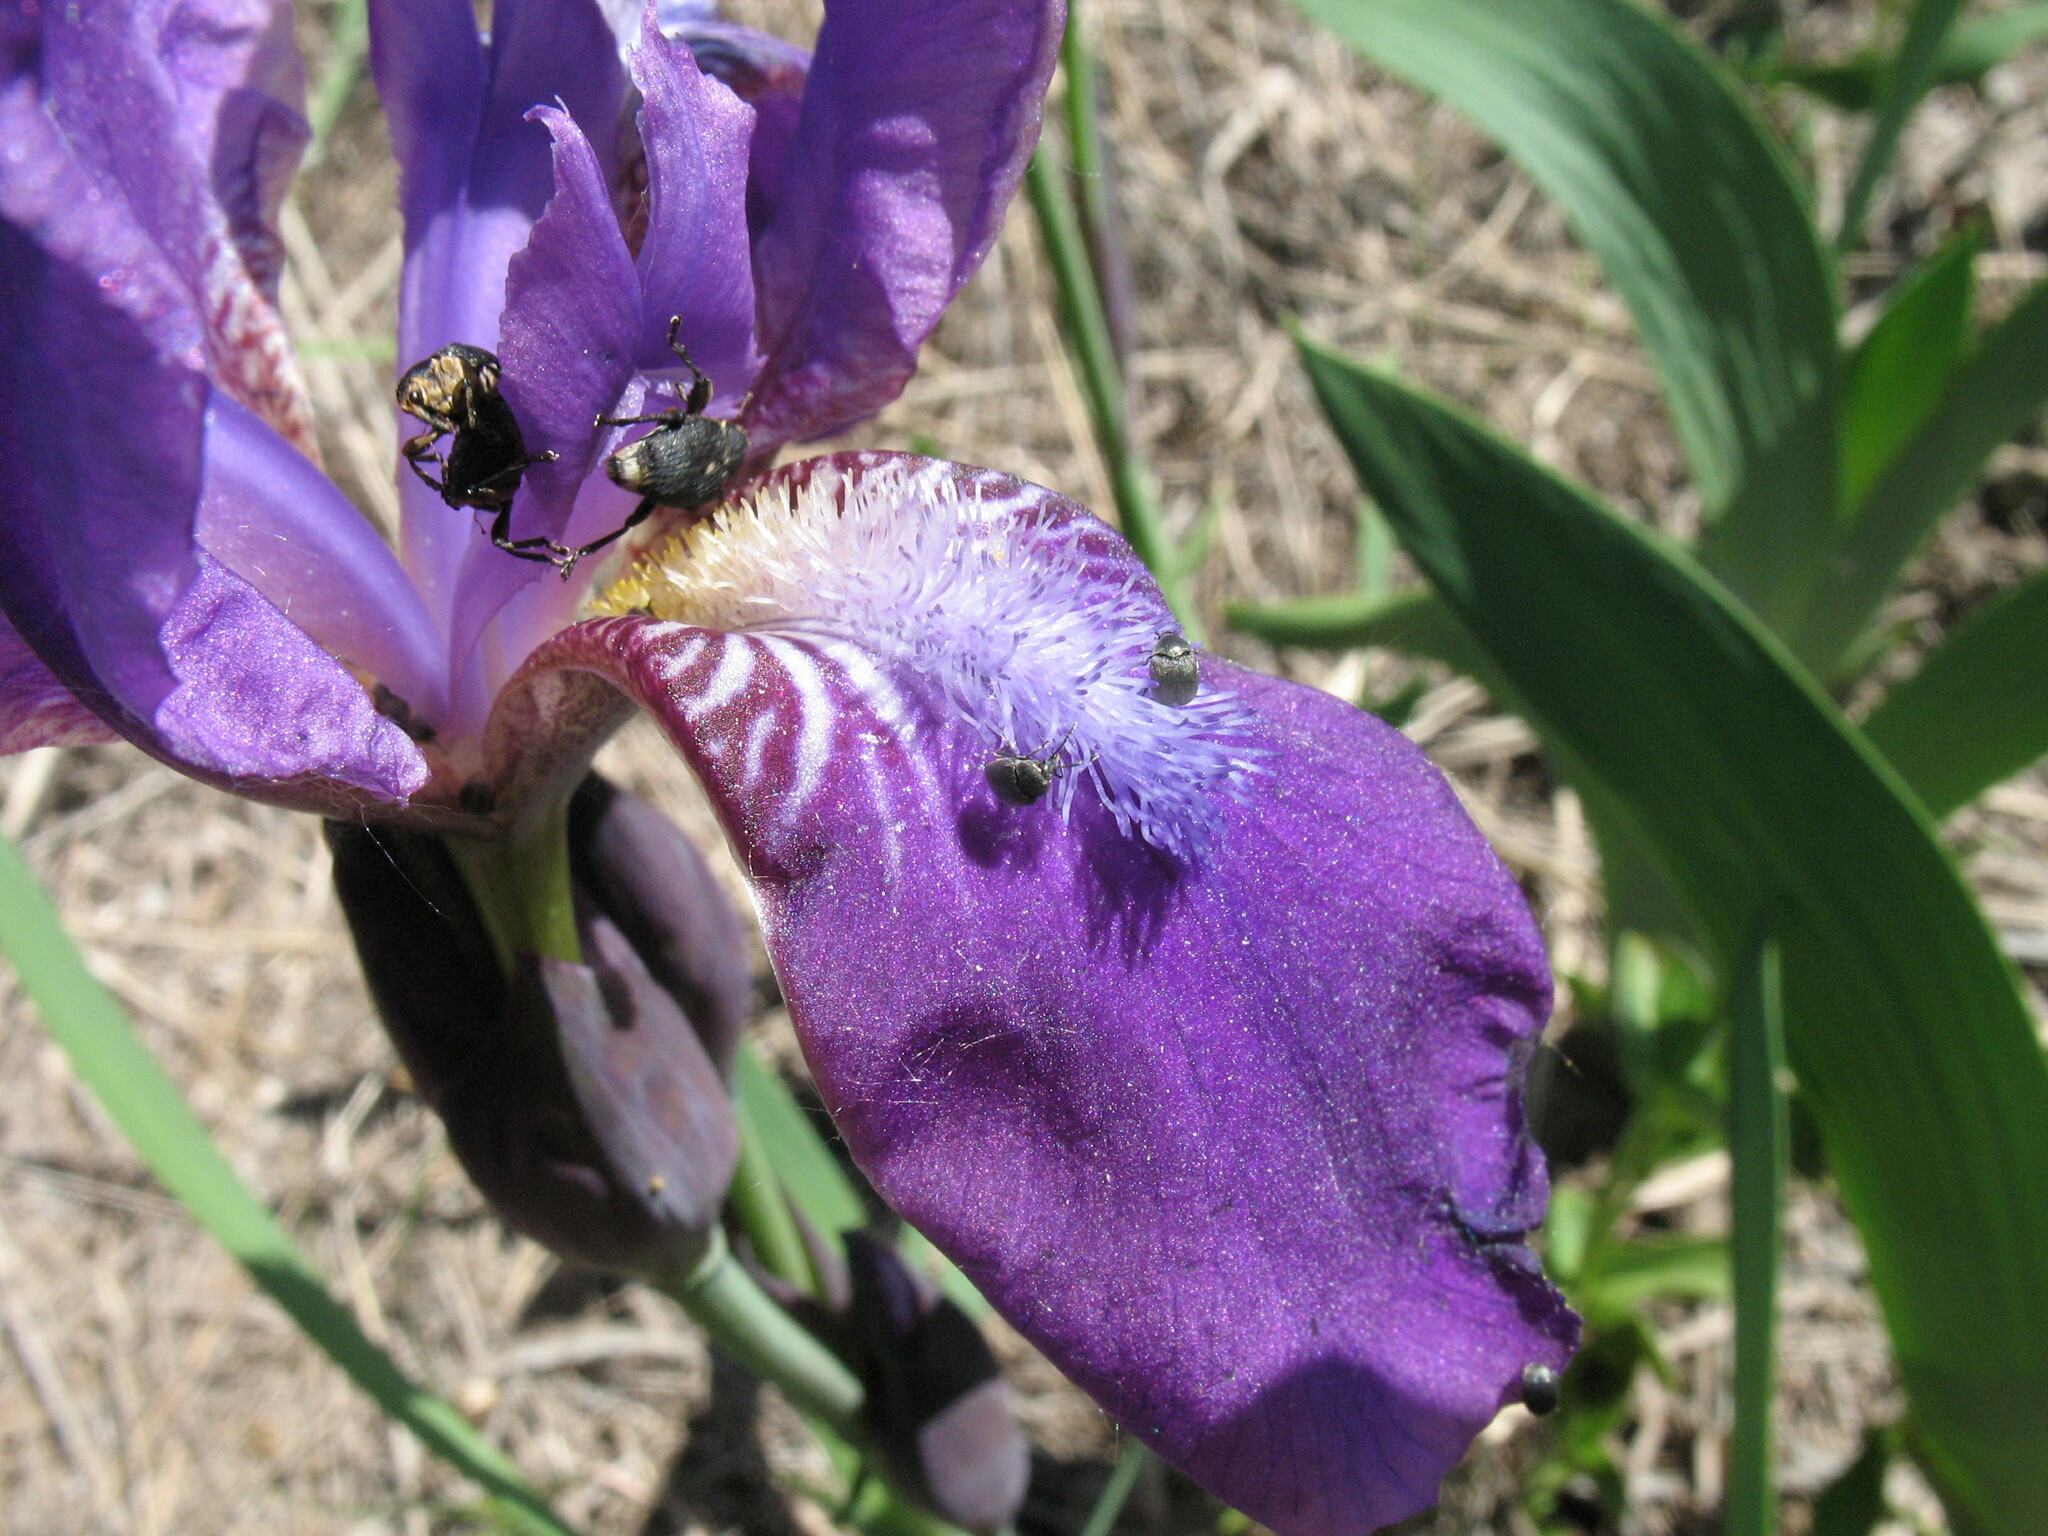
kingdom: Plantae
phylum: Tracheophyta
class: Liliopsida
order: Asparagales
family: Iridaceae
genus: Iris
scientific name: Iris aphylla
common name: Stool iris
